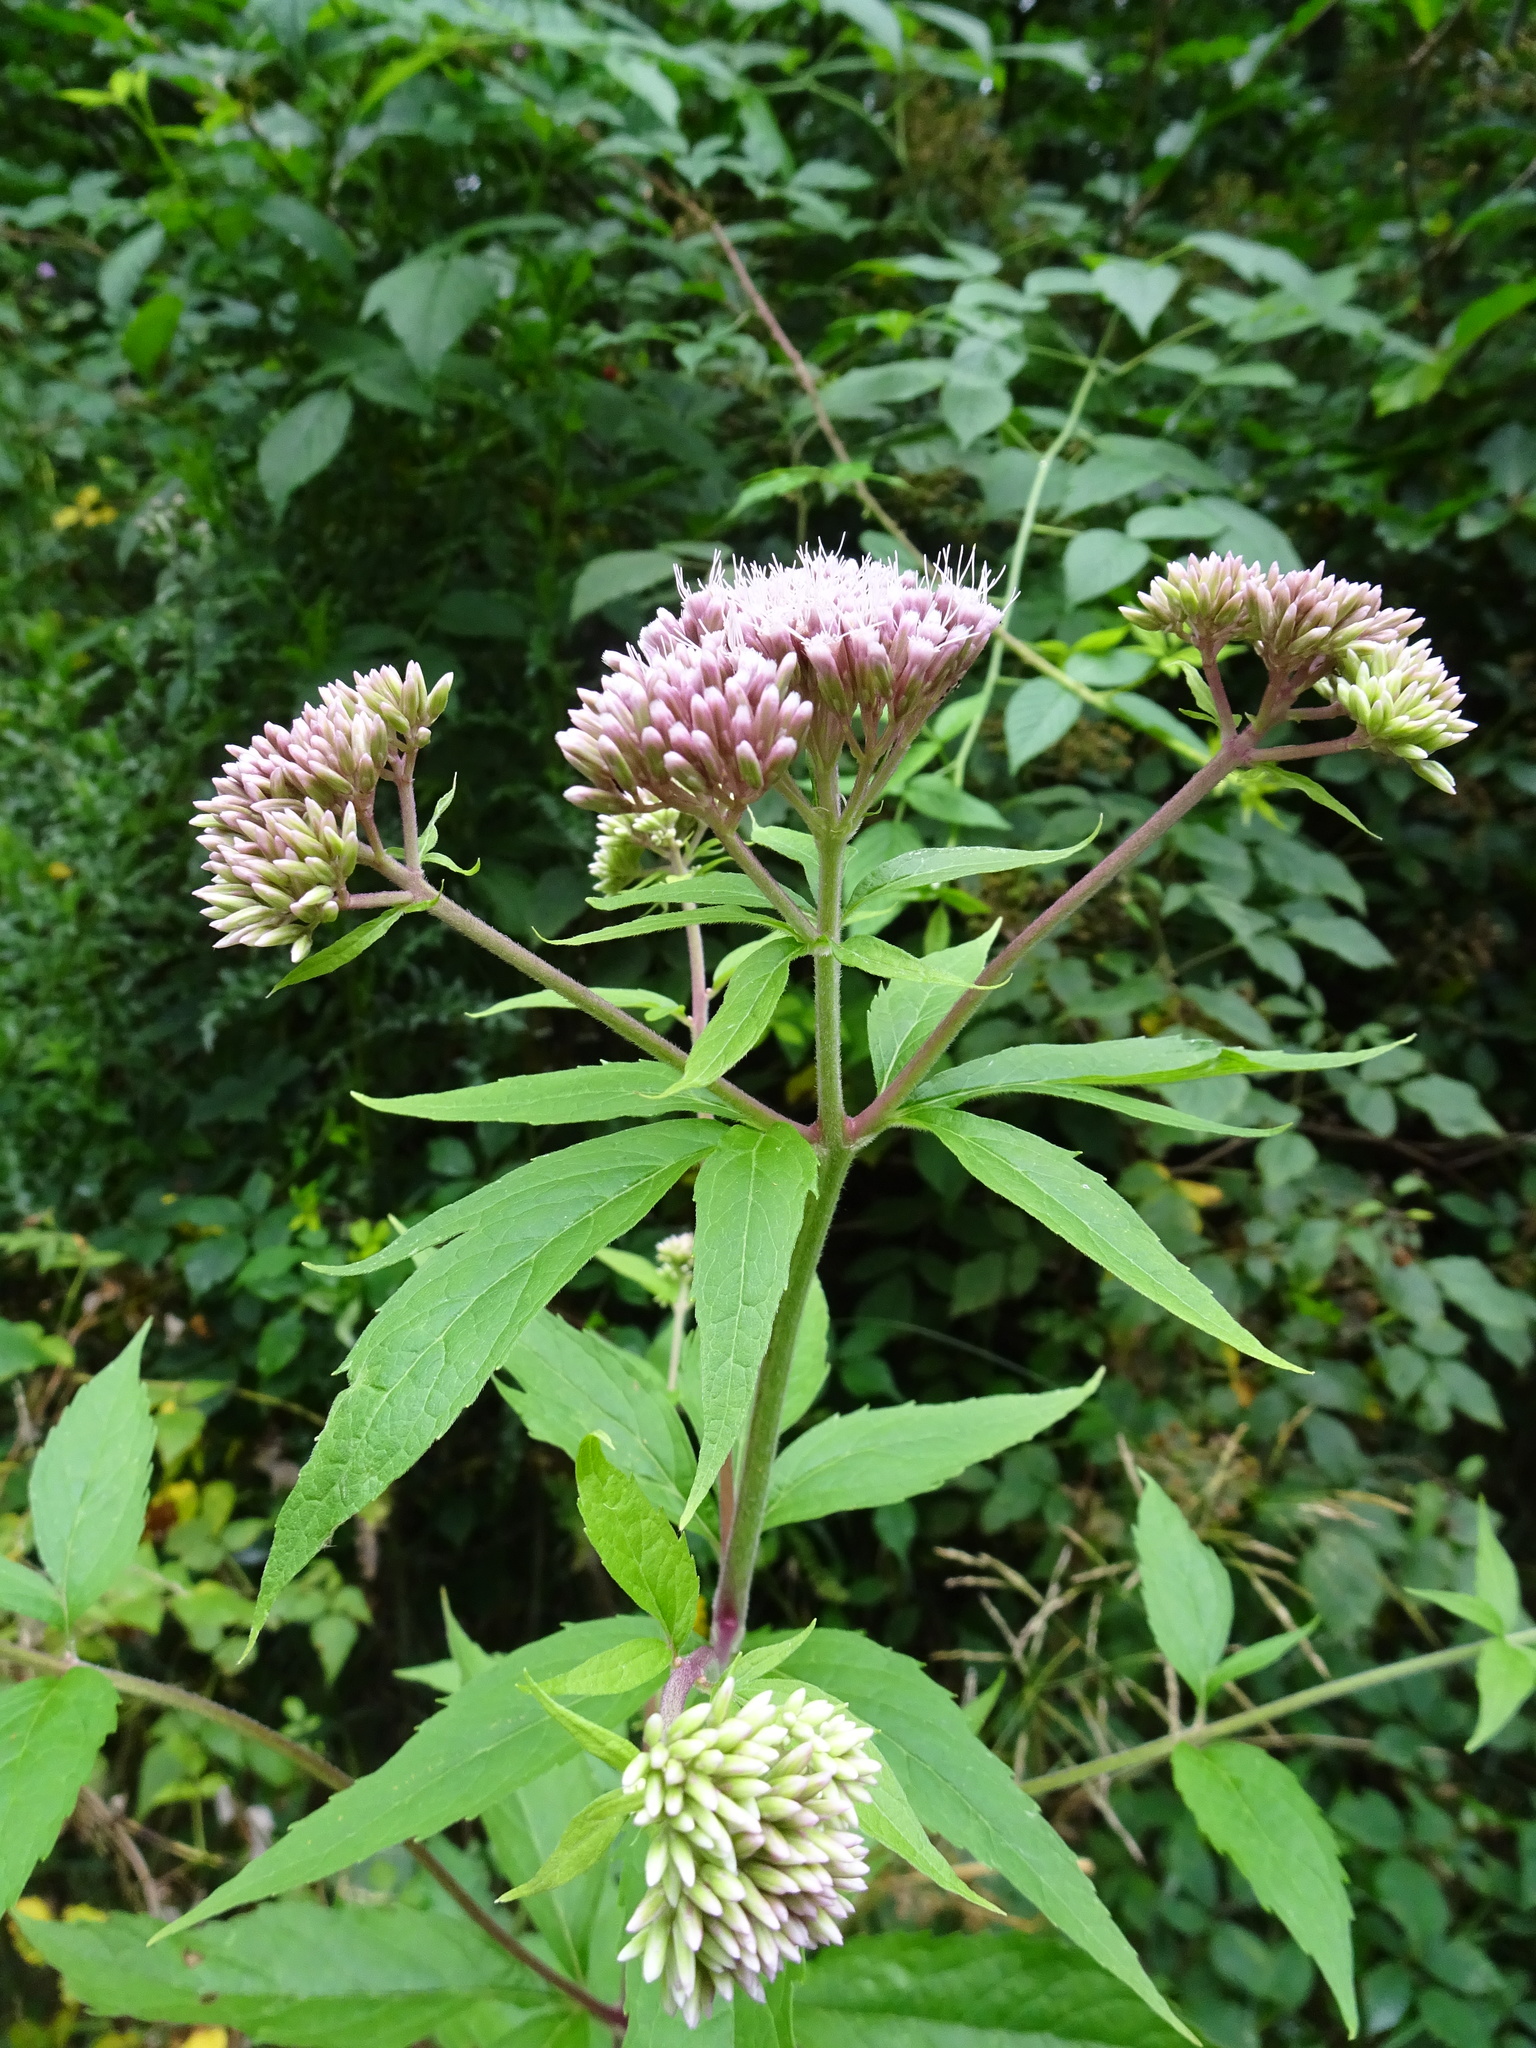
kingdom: Plantae
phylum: Tracheophyta
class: Magnoliopsida
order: Asterales
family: Asteraceae
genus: Eupatorium
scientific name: Eupatorium cannabinum
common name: Hemp-agrimony
